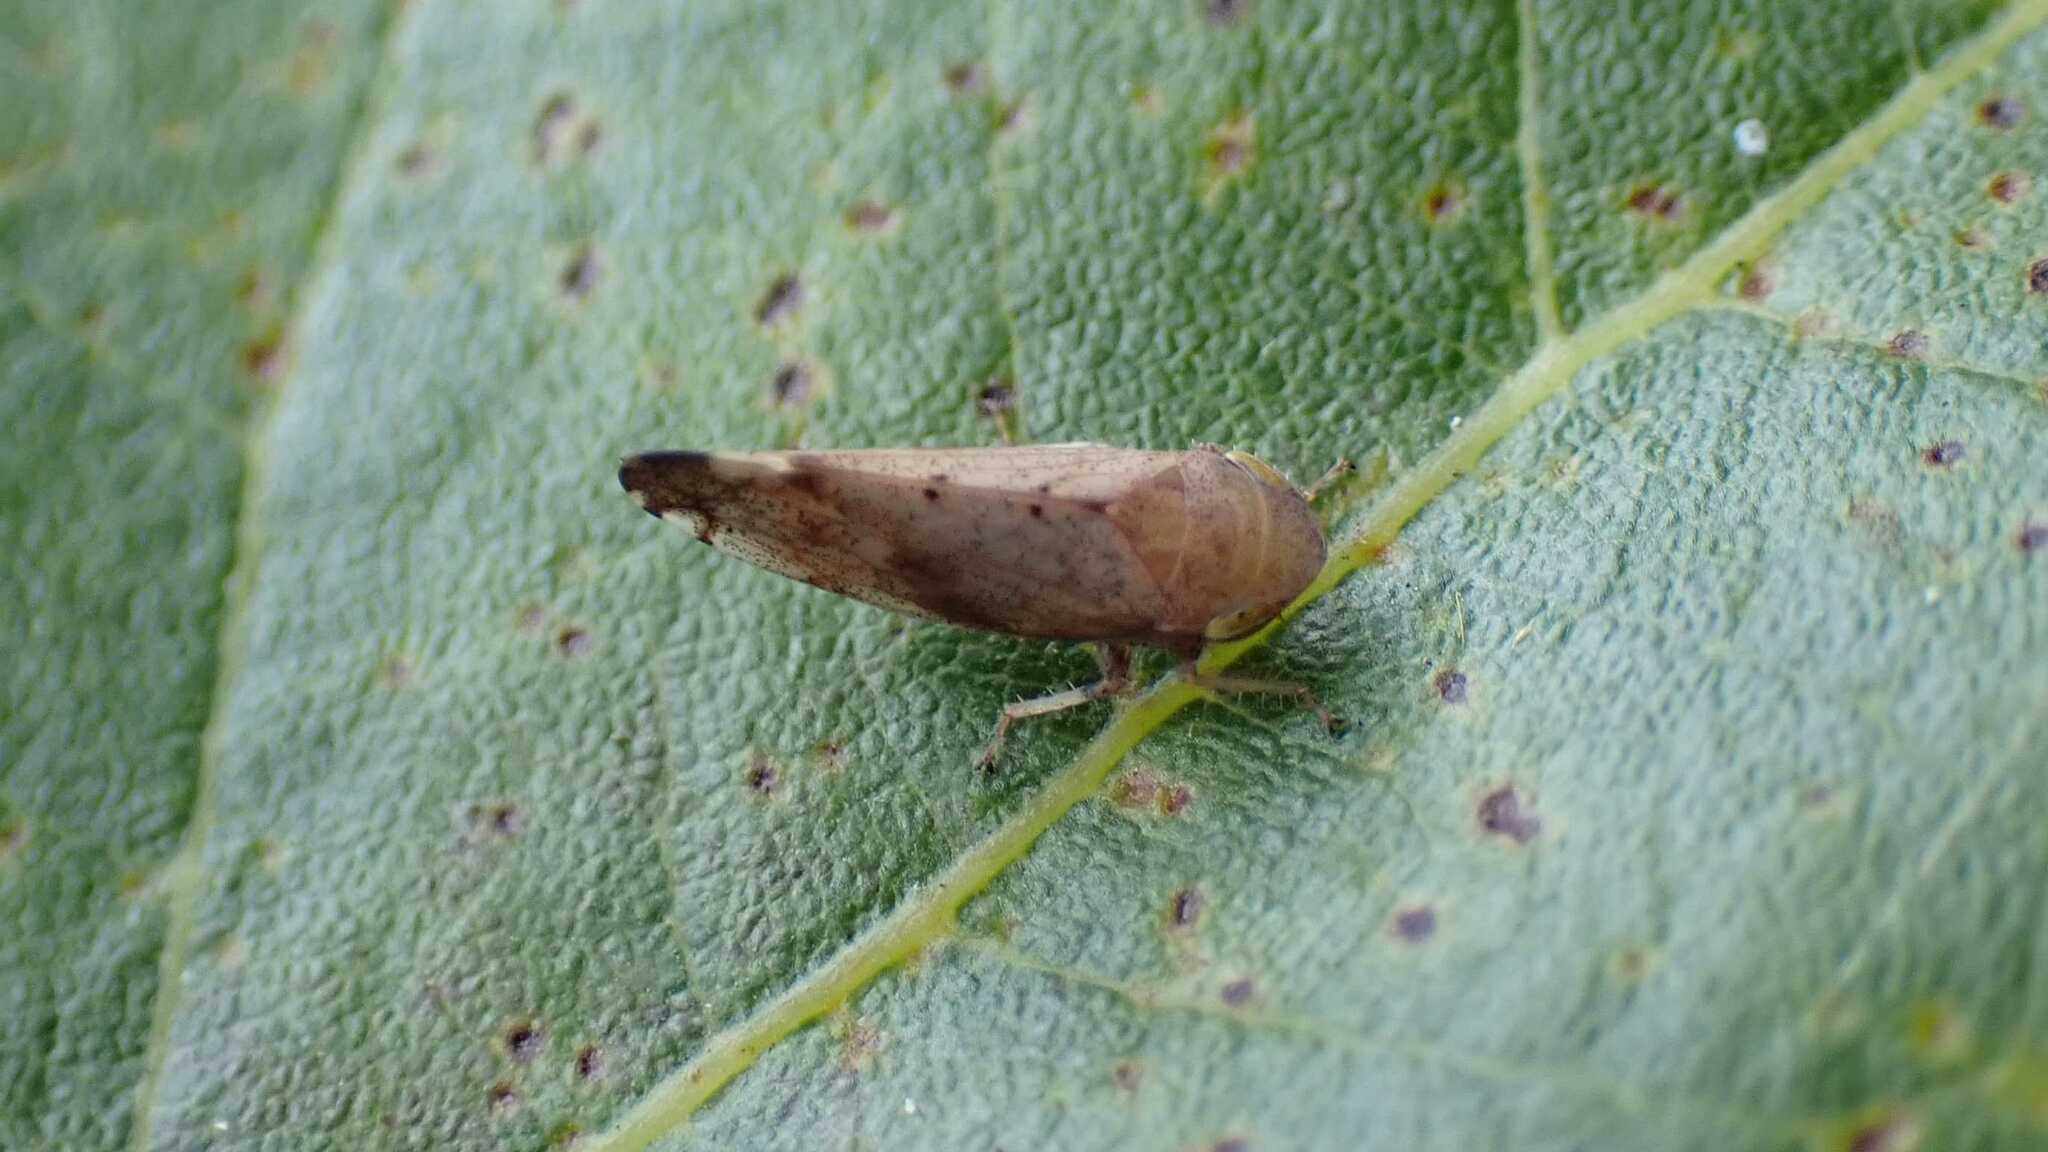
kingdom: Animalia
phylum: Arthropoda
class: Insecta
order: Hemiptera
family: Cicadellidae
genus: Fieberiella
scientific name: Fieberiella
